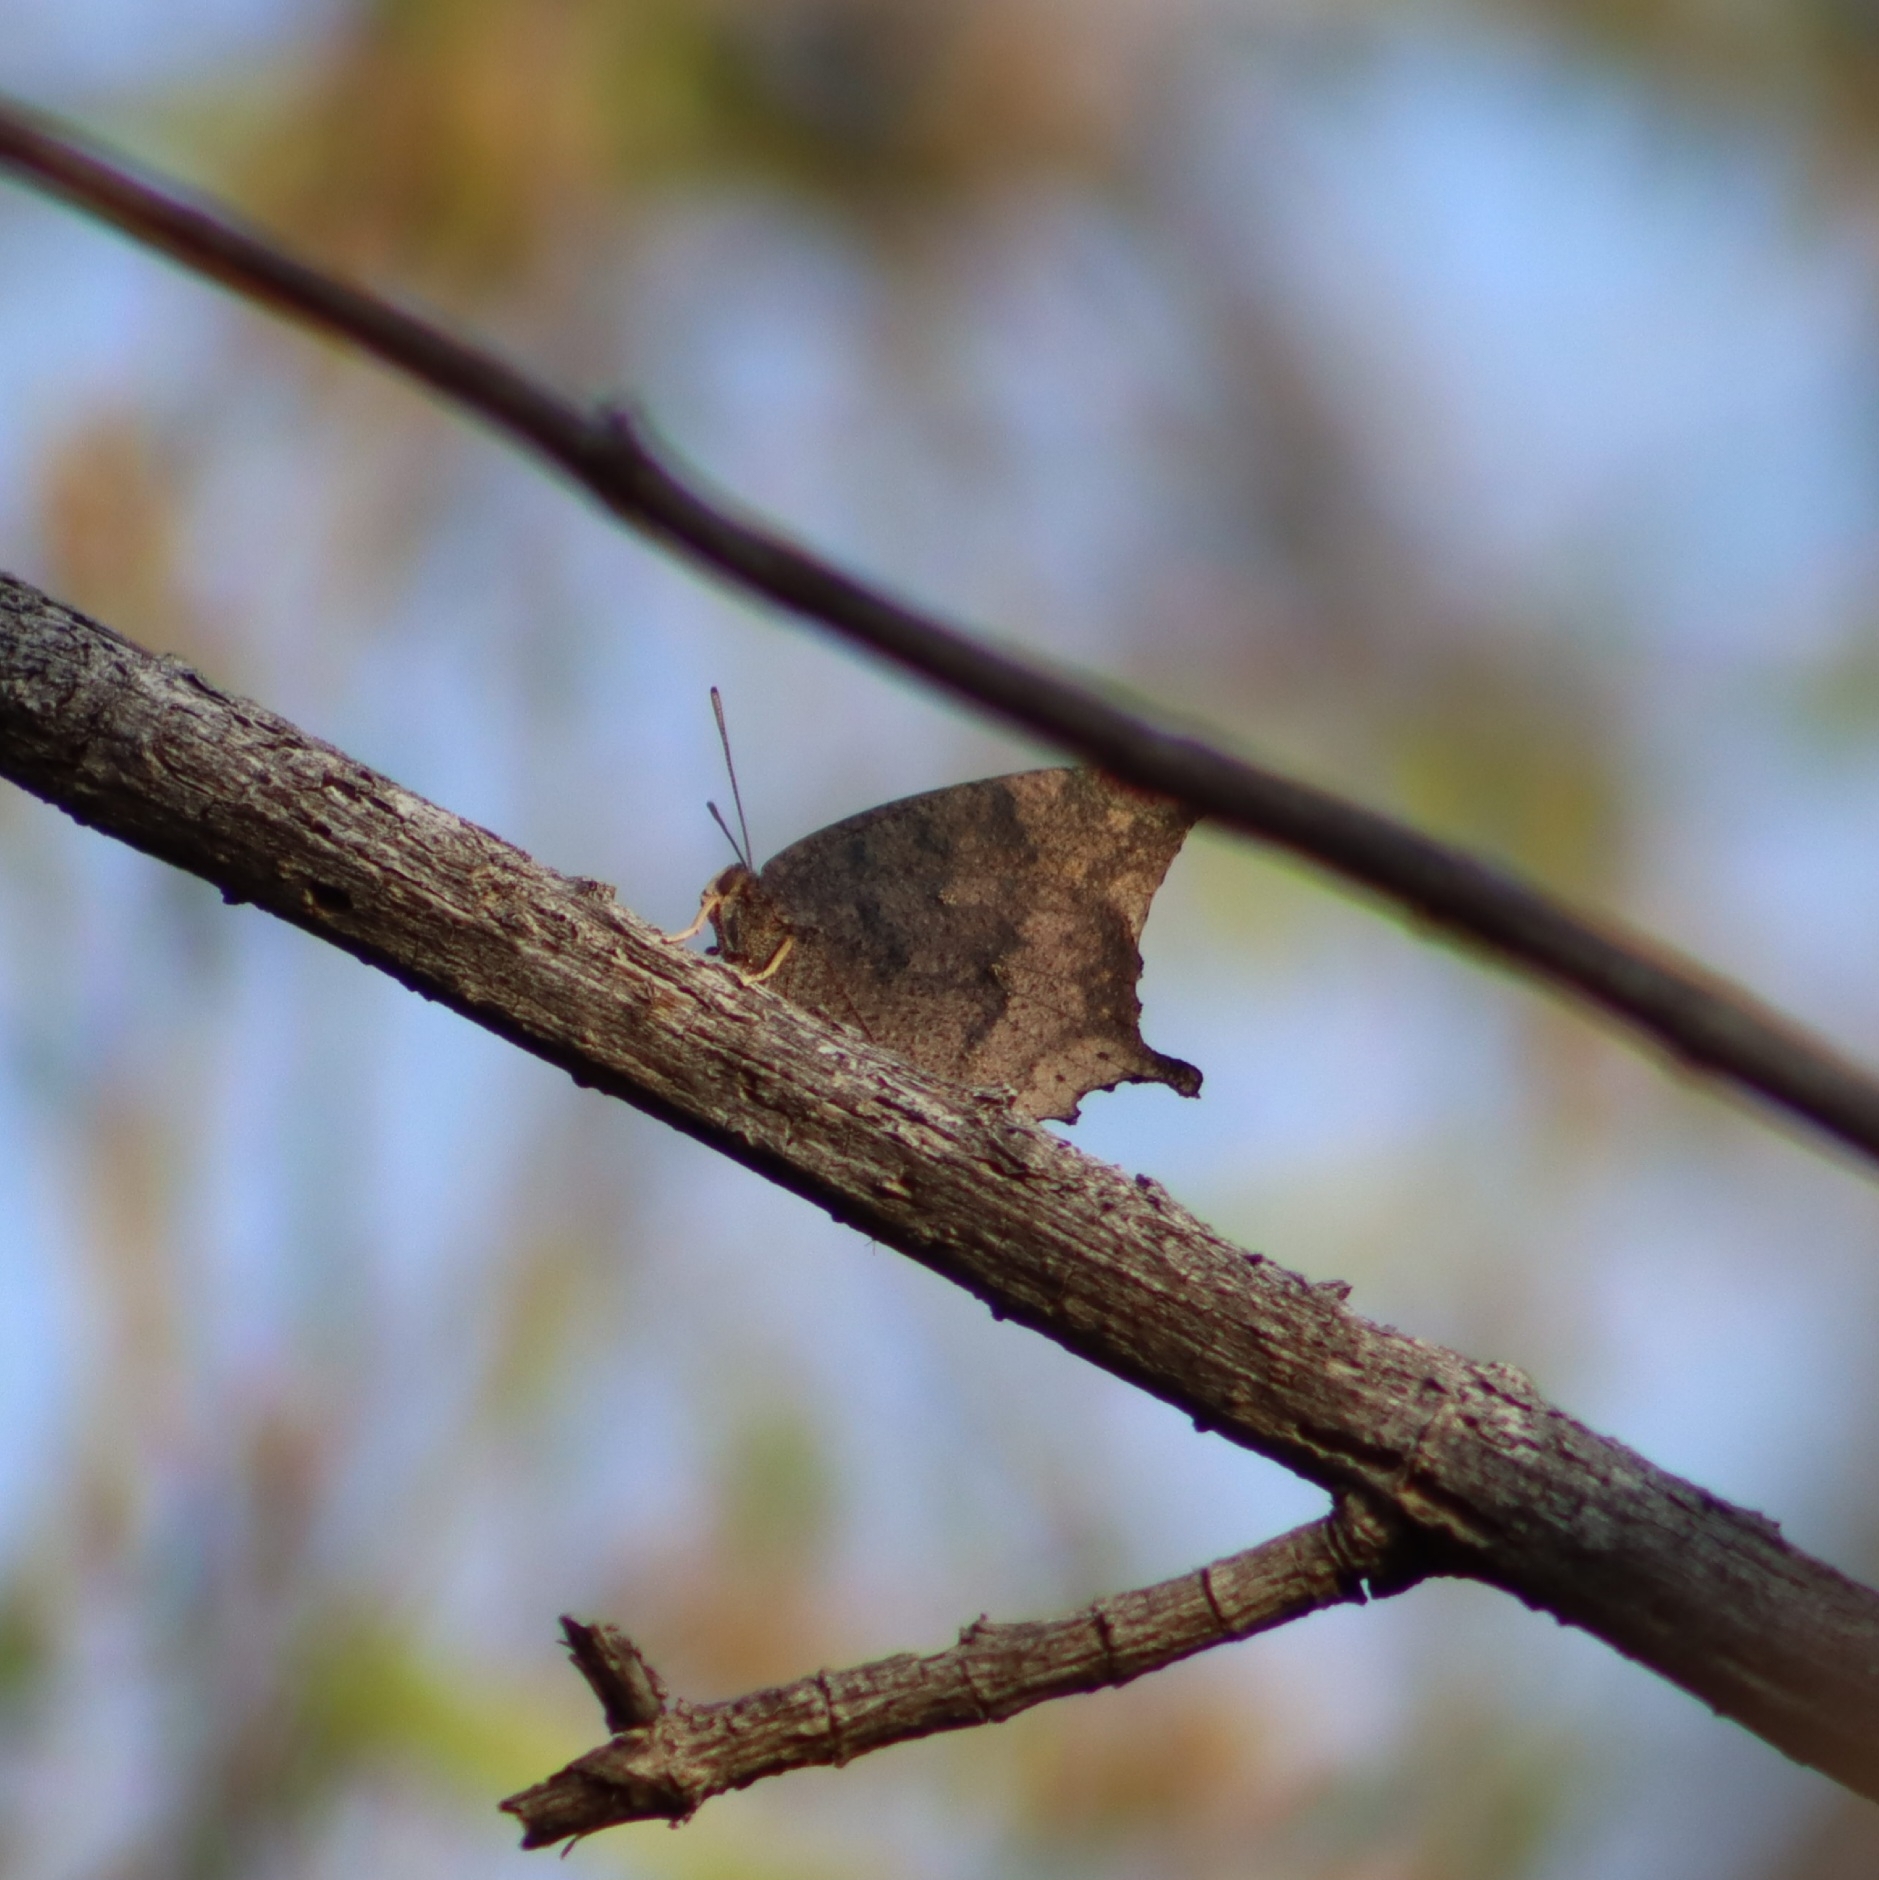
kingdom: Animalia
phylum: Arthropoda
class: Insecta
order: Lepidoptera
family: Nymphalidae
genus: Anaea
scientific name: Anaea aidea
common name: Tropical leafwing
